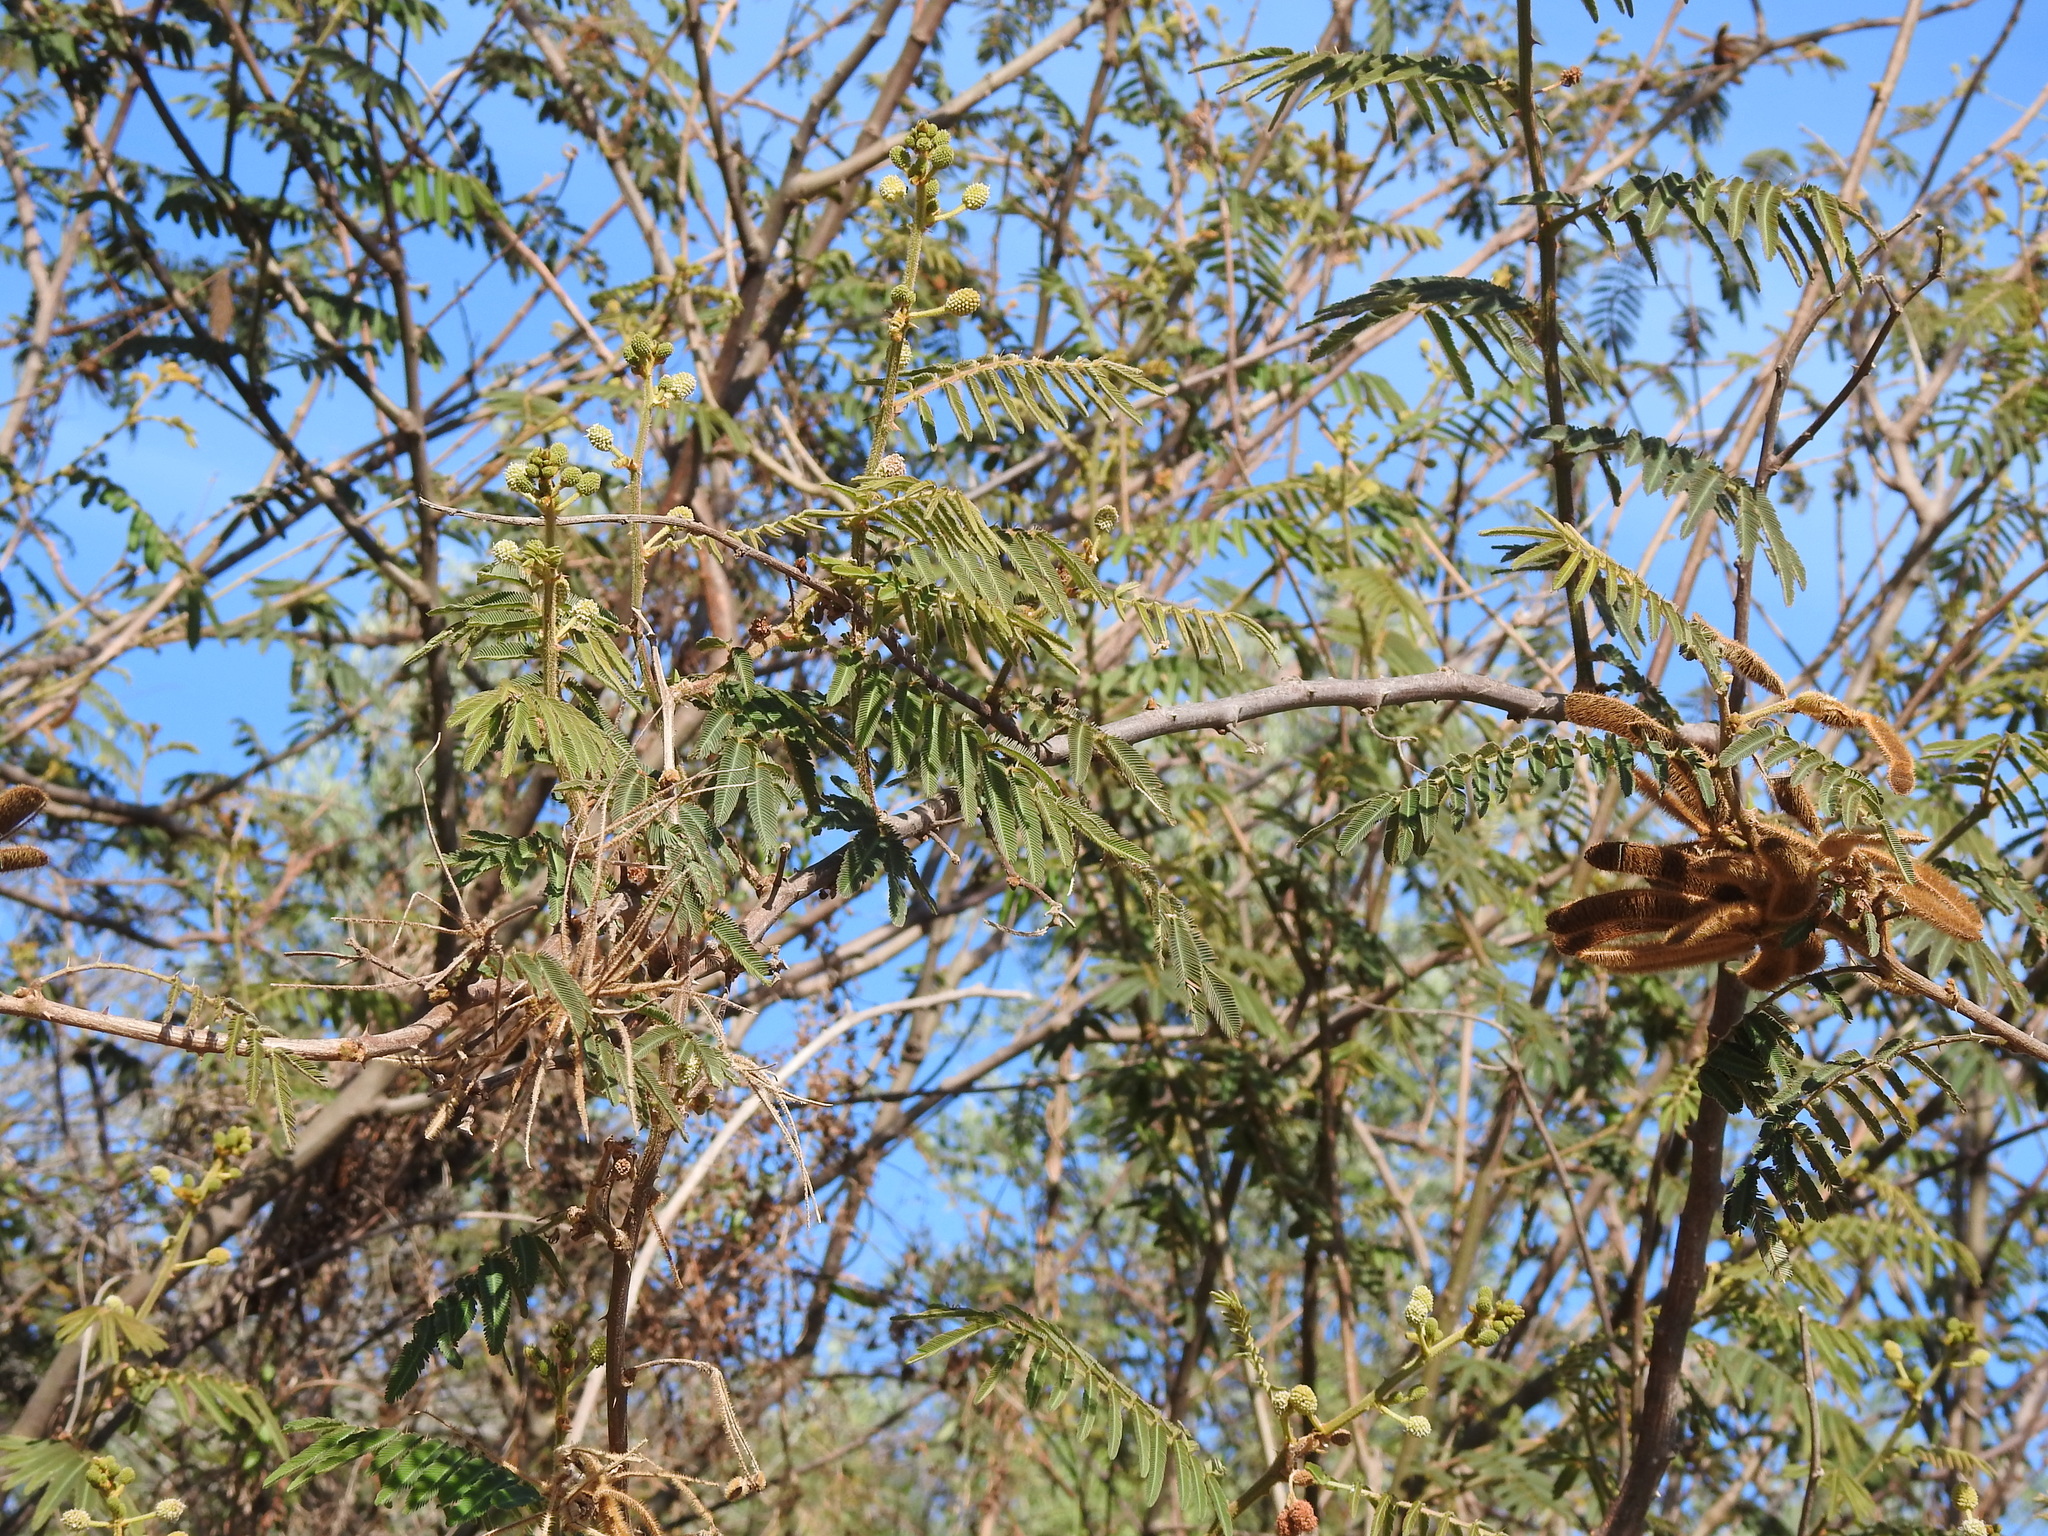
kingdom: Plantae
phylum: Tracheophyta
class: Magnoliopsida
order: Fabales
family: Fabaceae
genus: Mimosa
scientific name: Mimosa pigra
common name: Black mimosa
